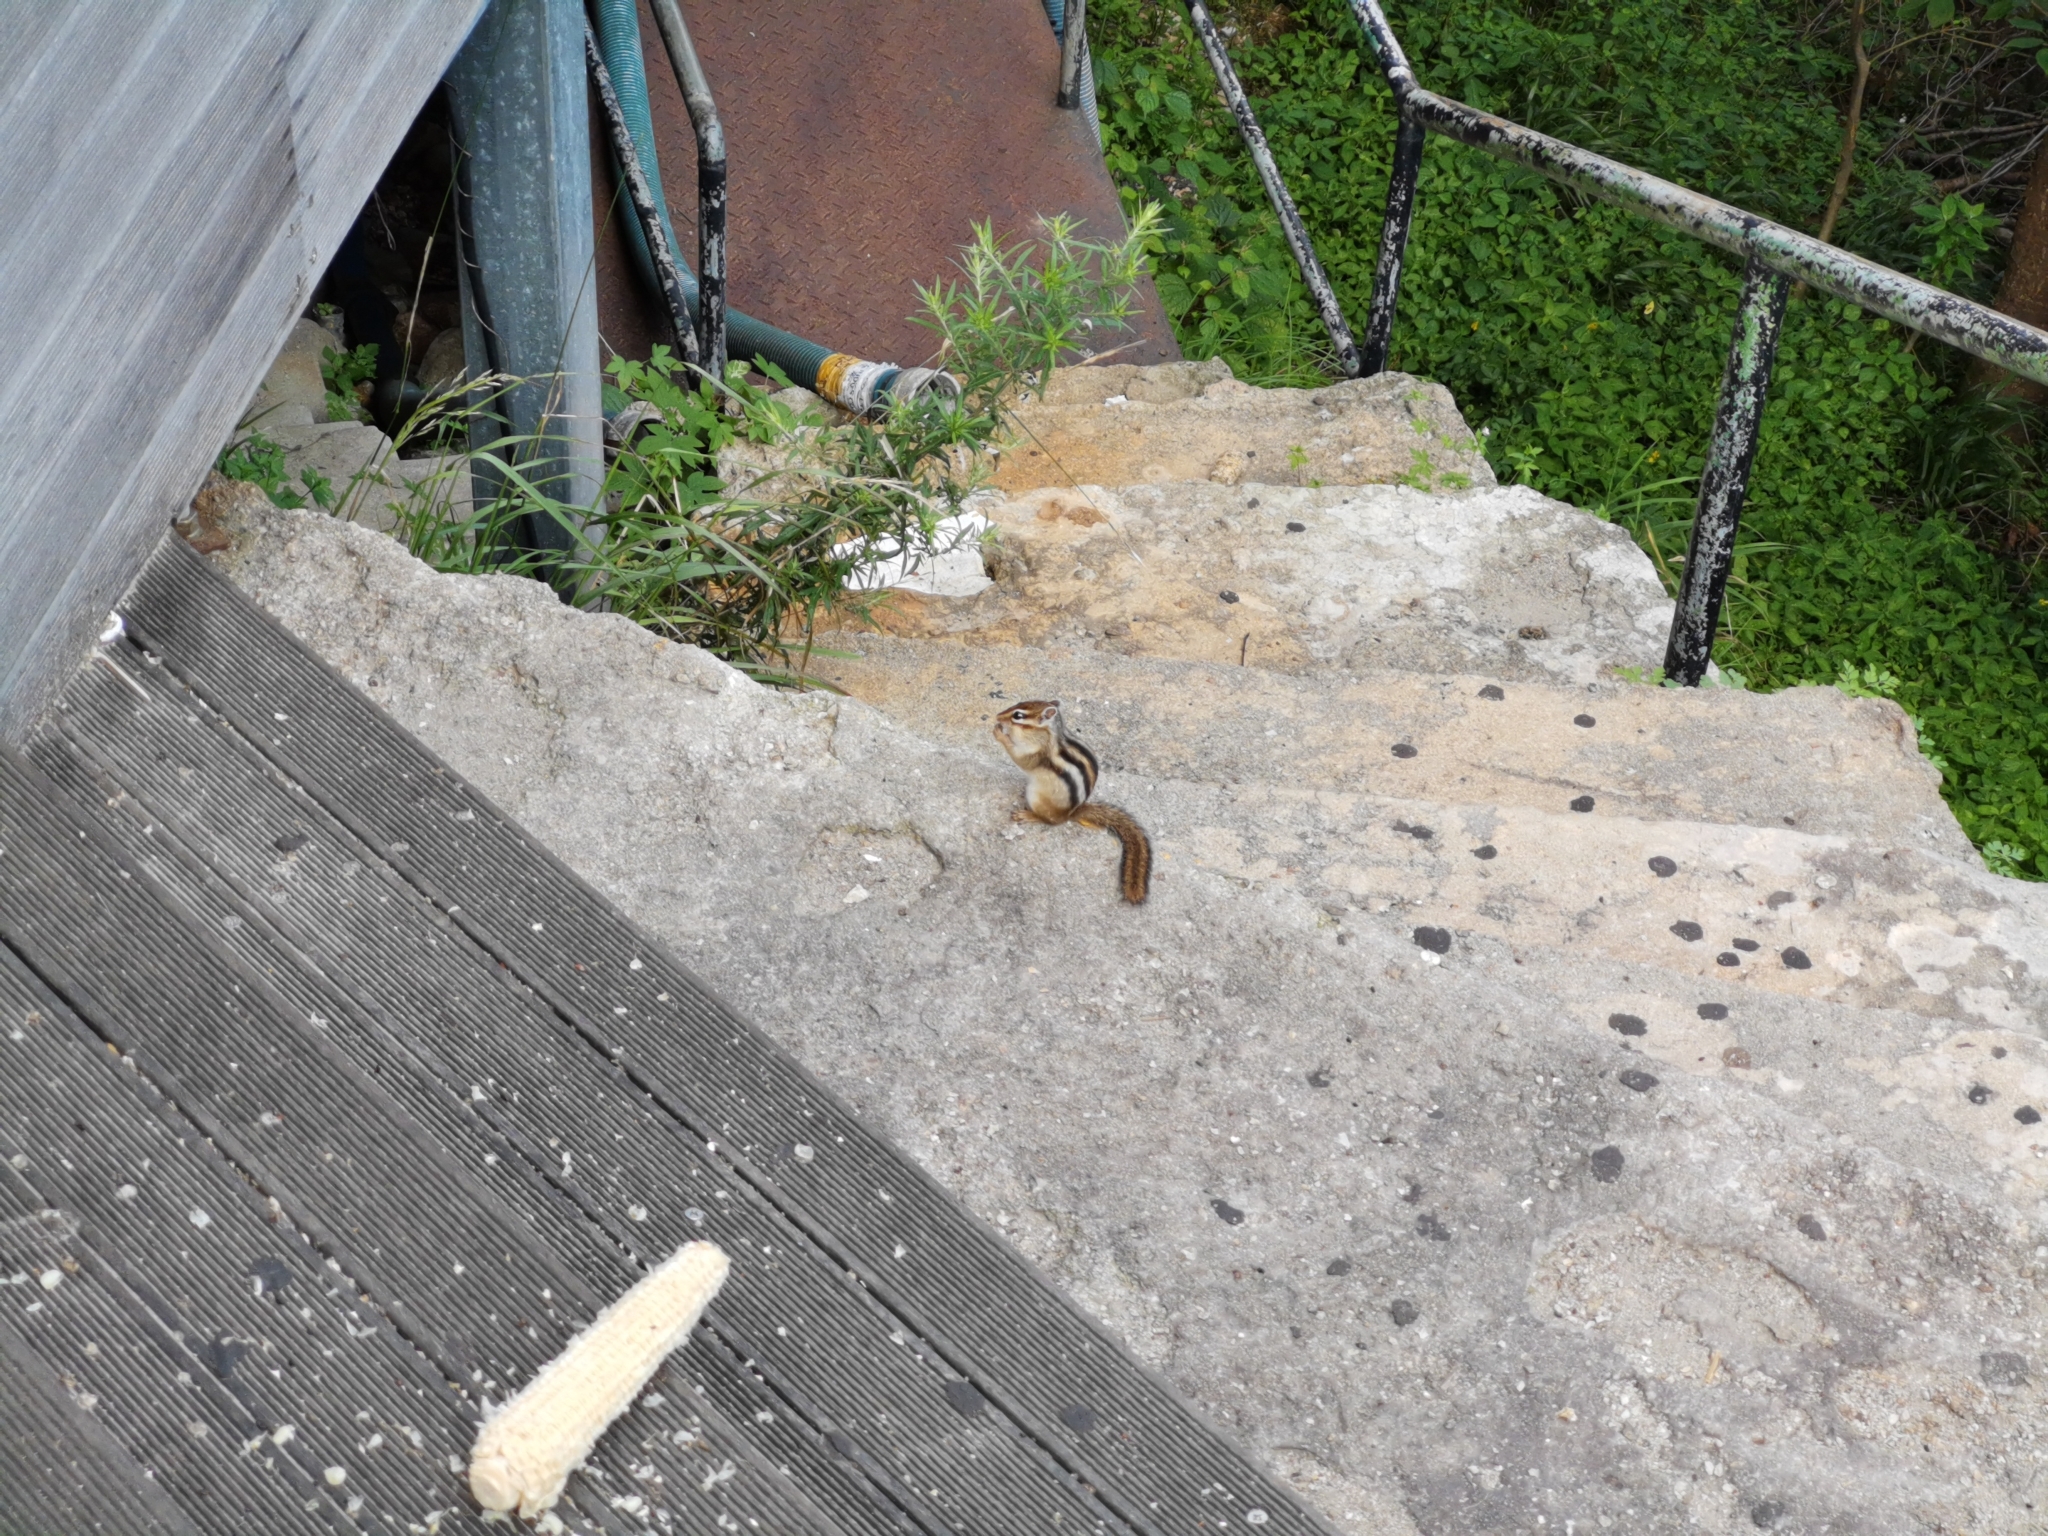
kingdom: Animalia
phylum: Chordata
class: Mammalia
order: Rodentia
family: Sciuridae
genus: Tamias
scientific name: Tamias sibiricus
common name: Siberian chipmunk
